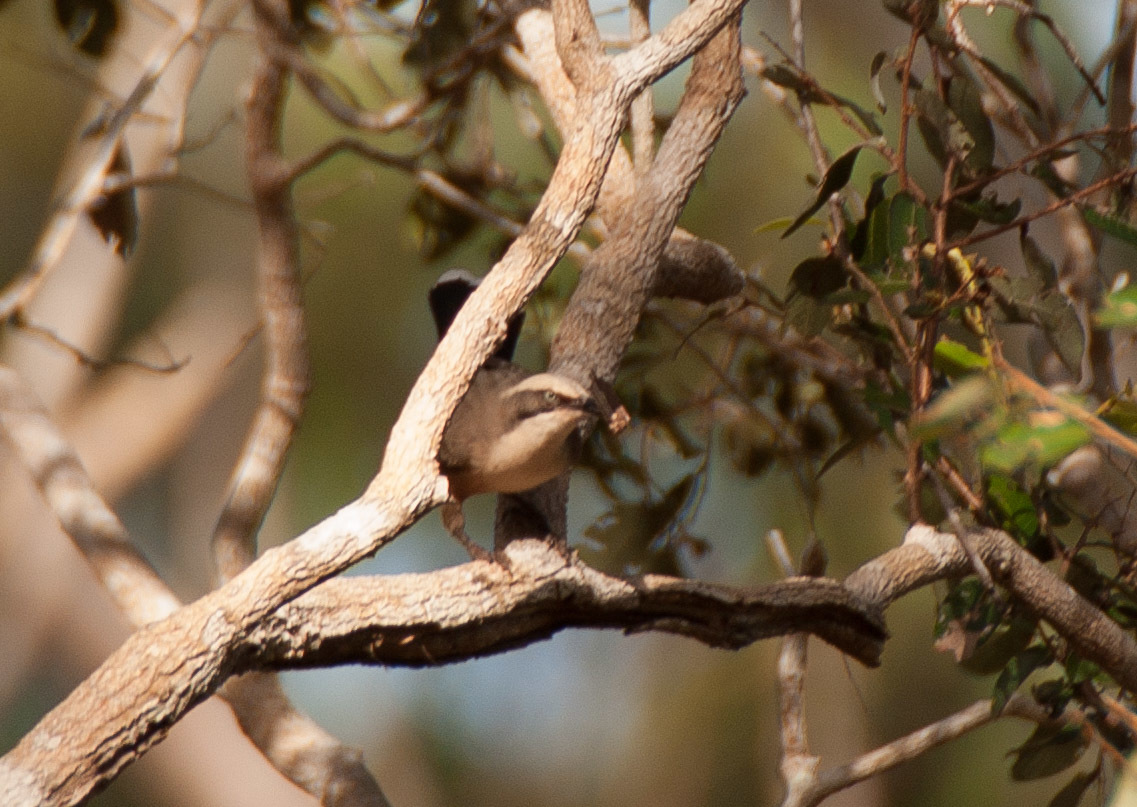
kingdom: Animalia
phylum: Chordata
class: Aves
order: Passeriformes
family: Pomatostomidae
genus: Pomatostomus
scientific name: Pomatostomus temporalis
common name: Grey-crowned babbler
